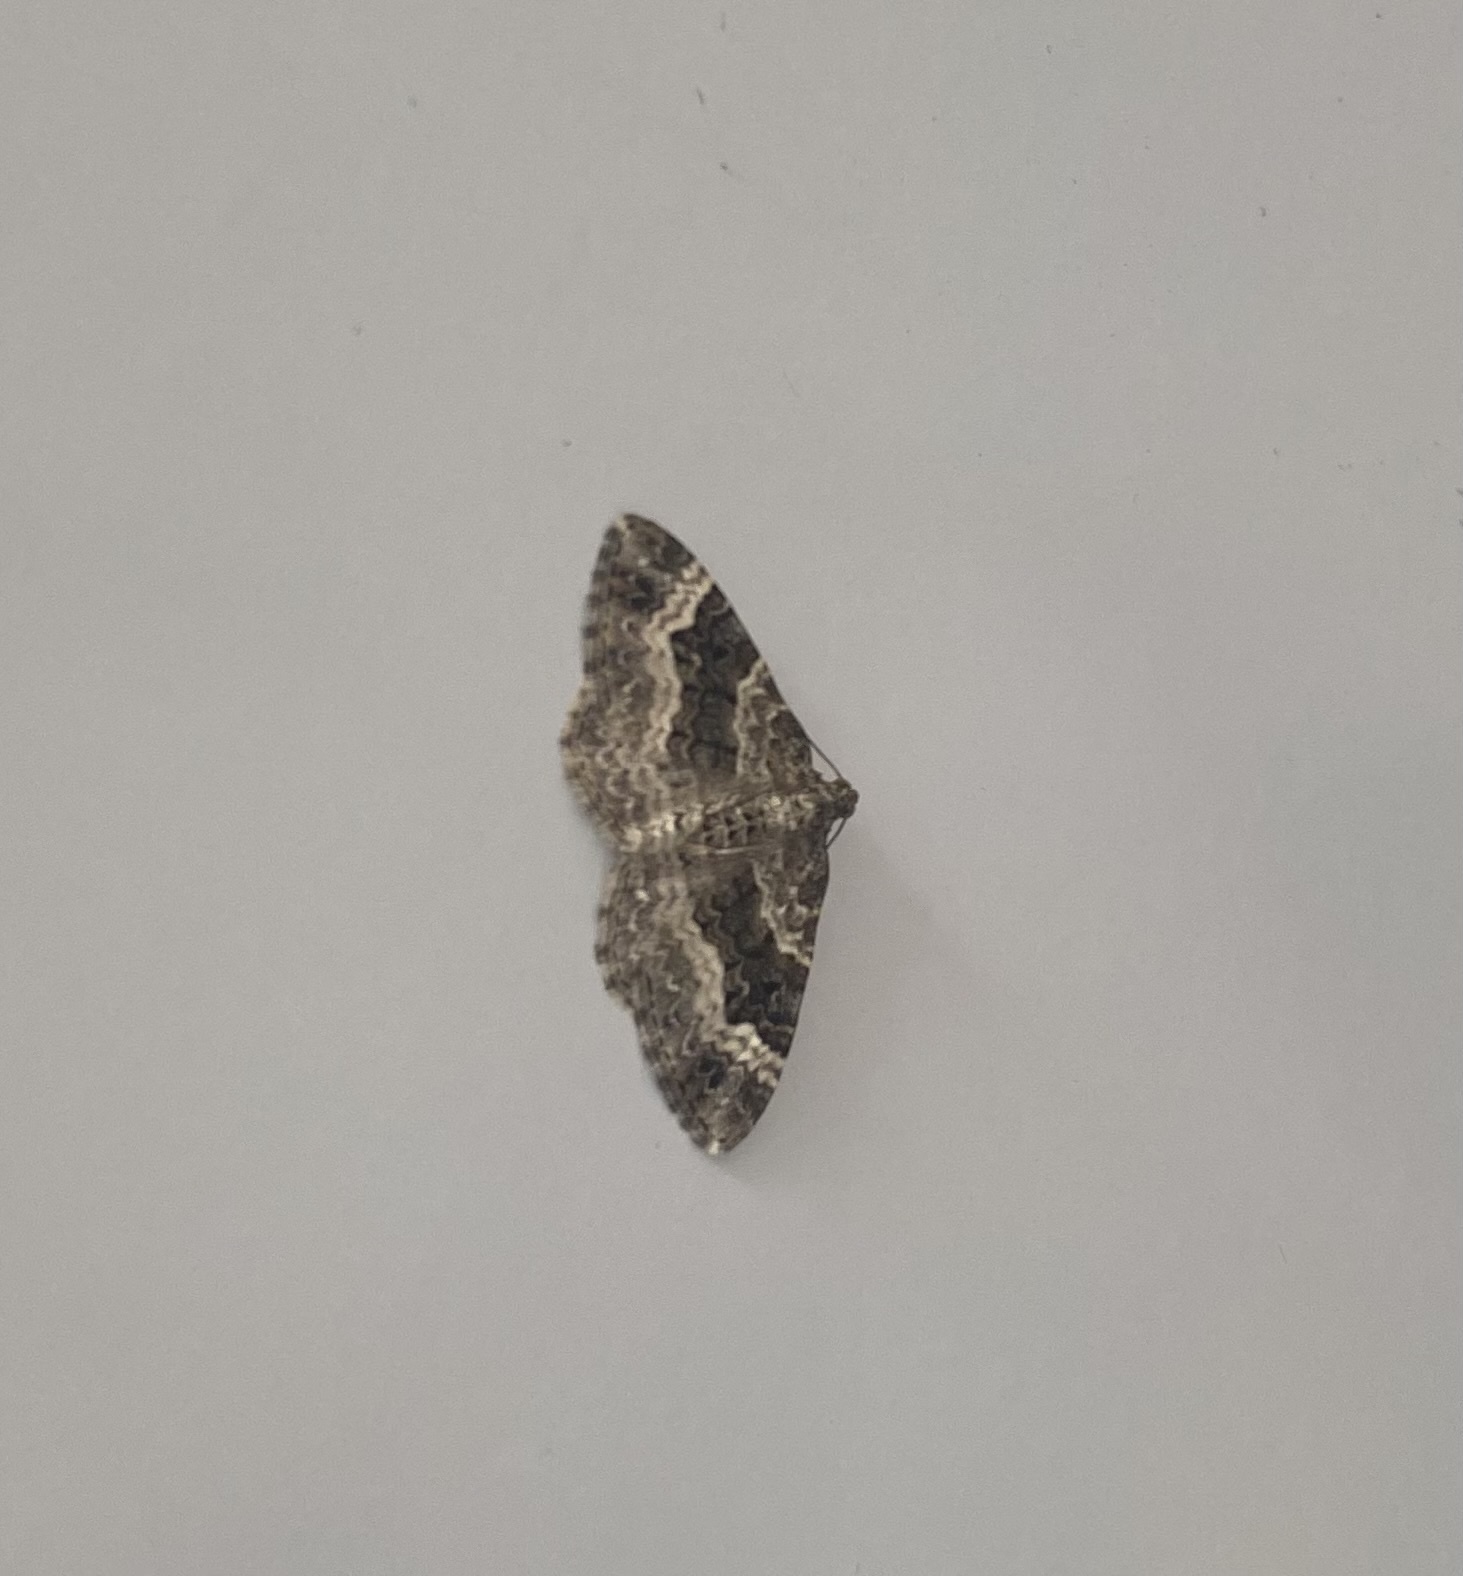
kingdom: Animalia
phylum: Arthropoda
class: Insecta
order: Lepidoptera
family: Geometridae
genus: Epirrhoe
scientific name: Epirrhoe alternata
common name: Common carpet
